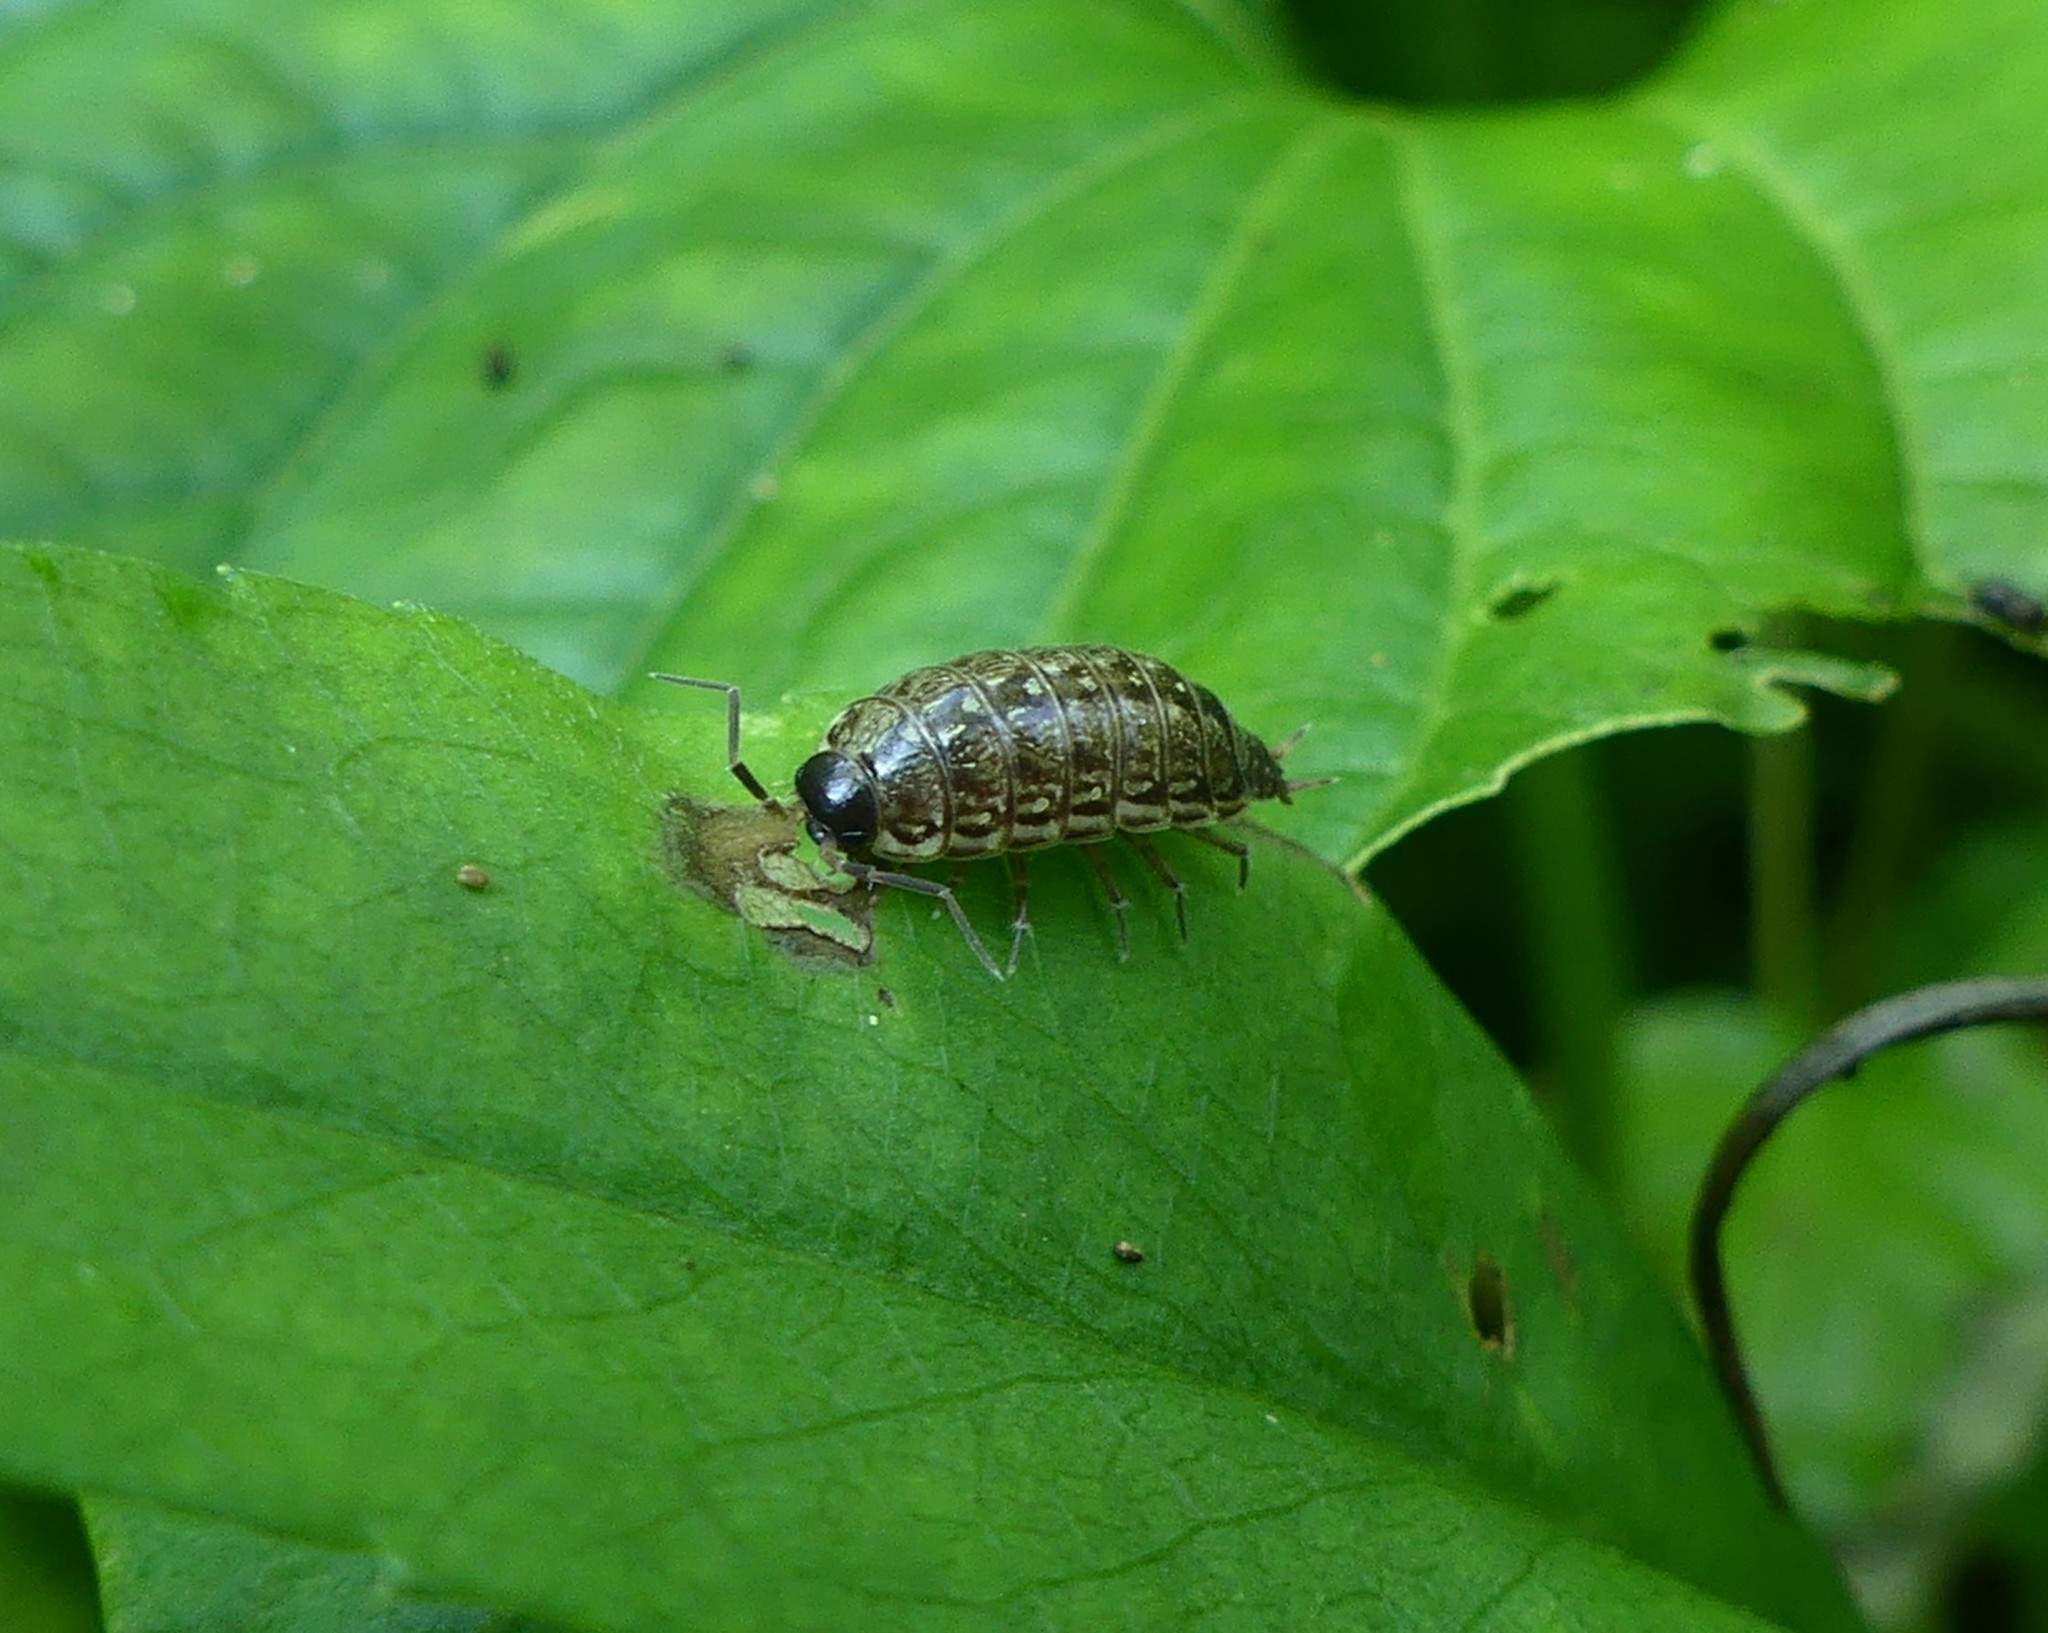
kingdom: Animalia
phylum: Arthropoda
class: Malacostraca
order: Isopoda
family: Philosciidae
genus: Philoscia
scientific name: Philoscia muscorum
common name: Common striped woodlouse
